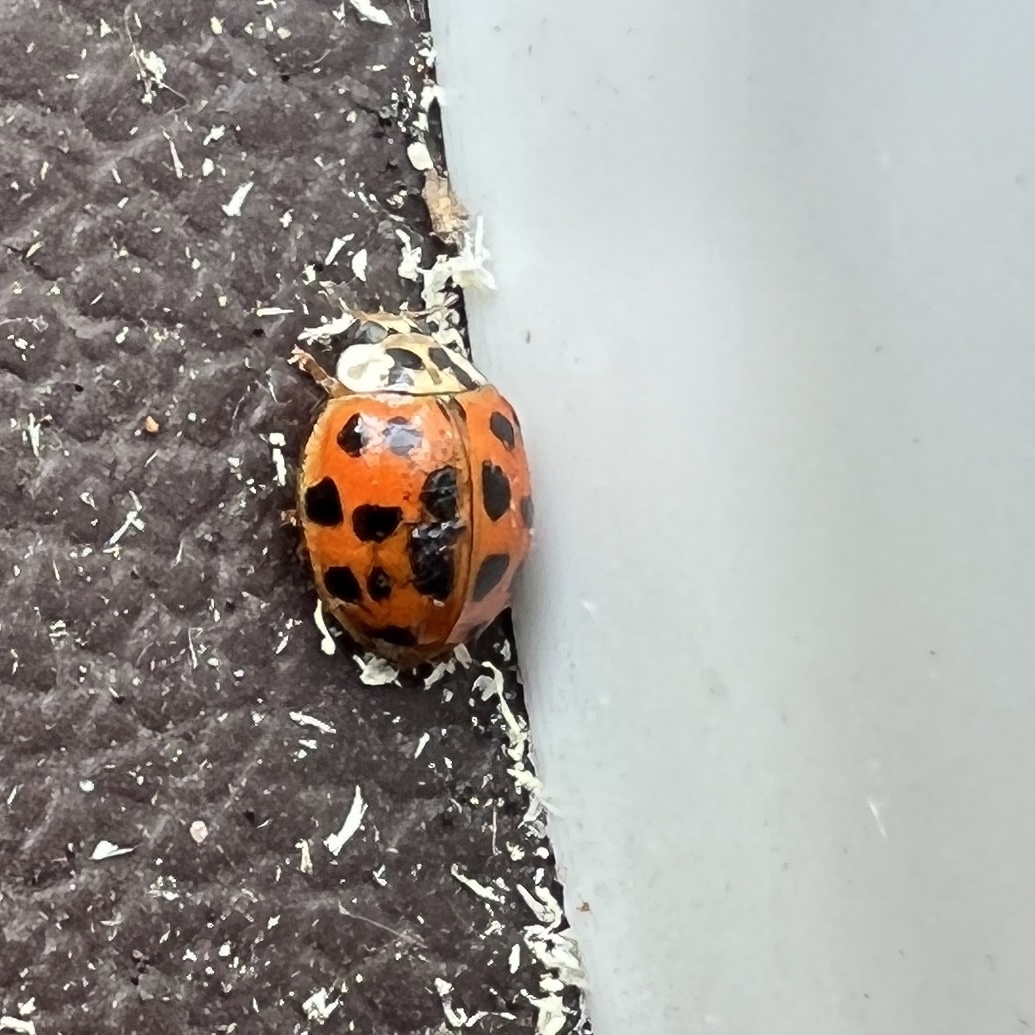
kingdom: Animalia
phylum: Arthropoda
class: Insecta
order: Coleoptera
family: Coccinellidae
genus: Harmonia
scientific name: Harmonia axyridis
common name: Harlequin ladybird
